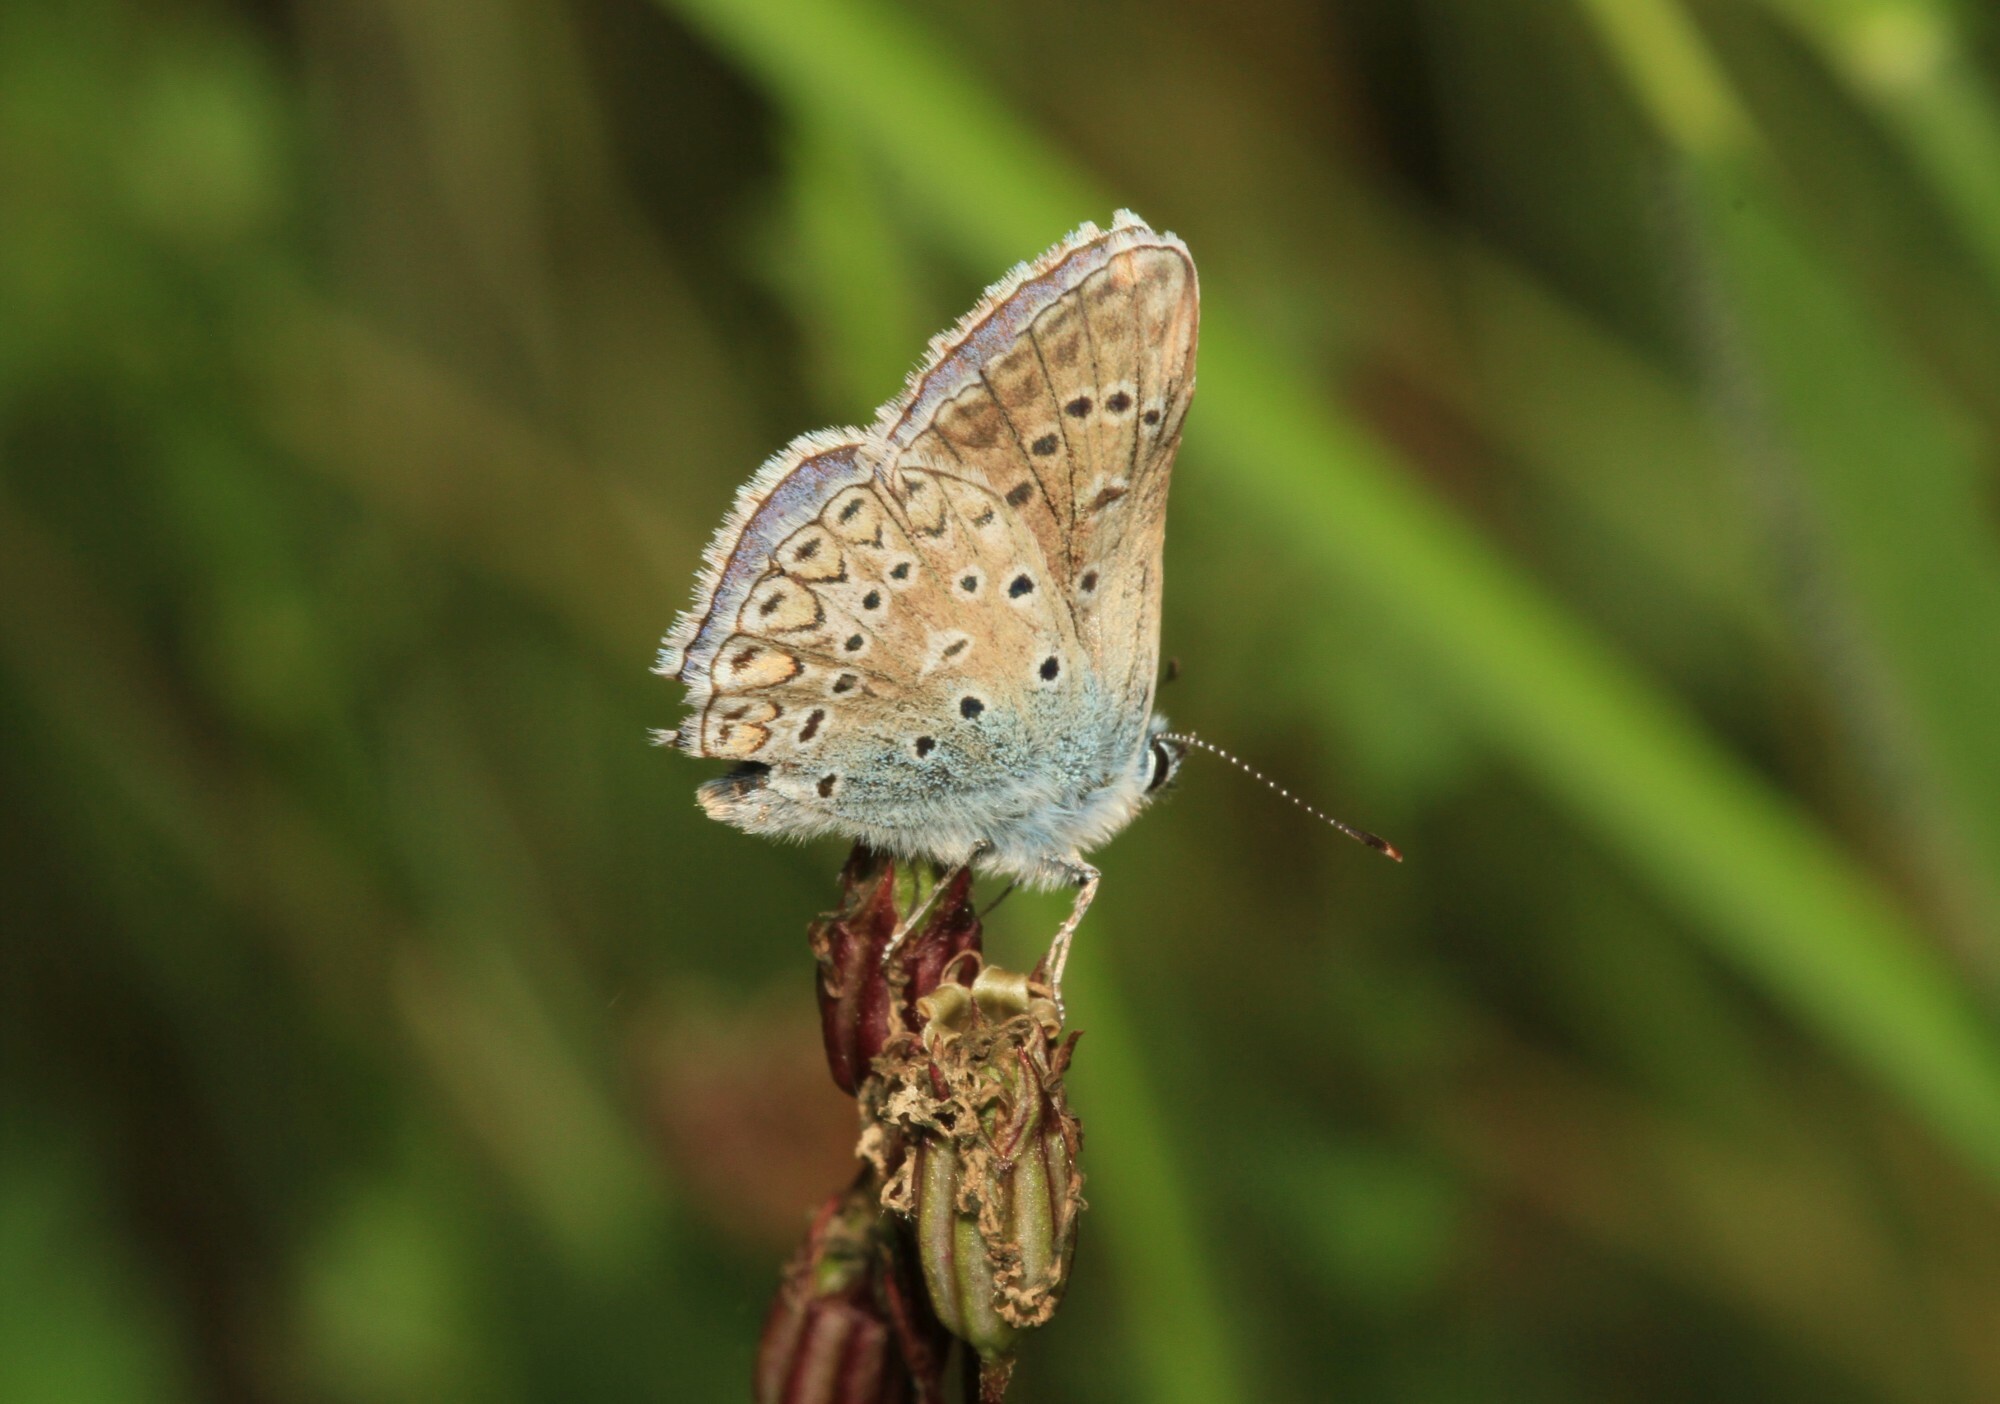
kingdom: Animalia
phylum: Arthropoda
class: Insecta
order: Lepidoptera
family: Lycaenidae
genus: Polyommatus
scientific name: Polyommatus icarus
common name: Common blue
